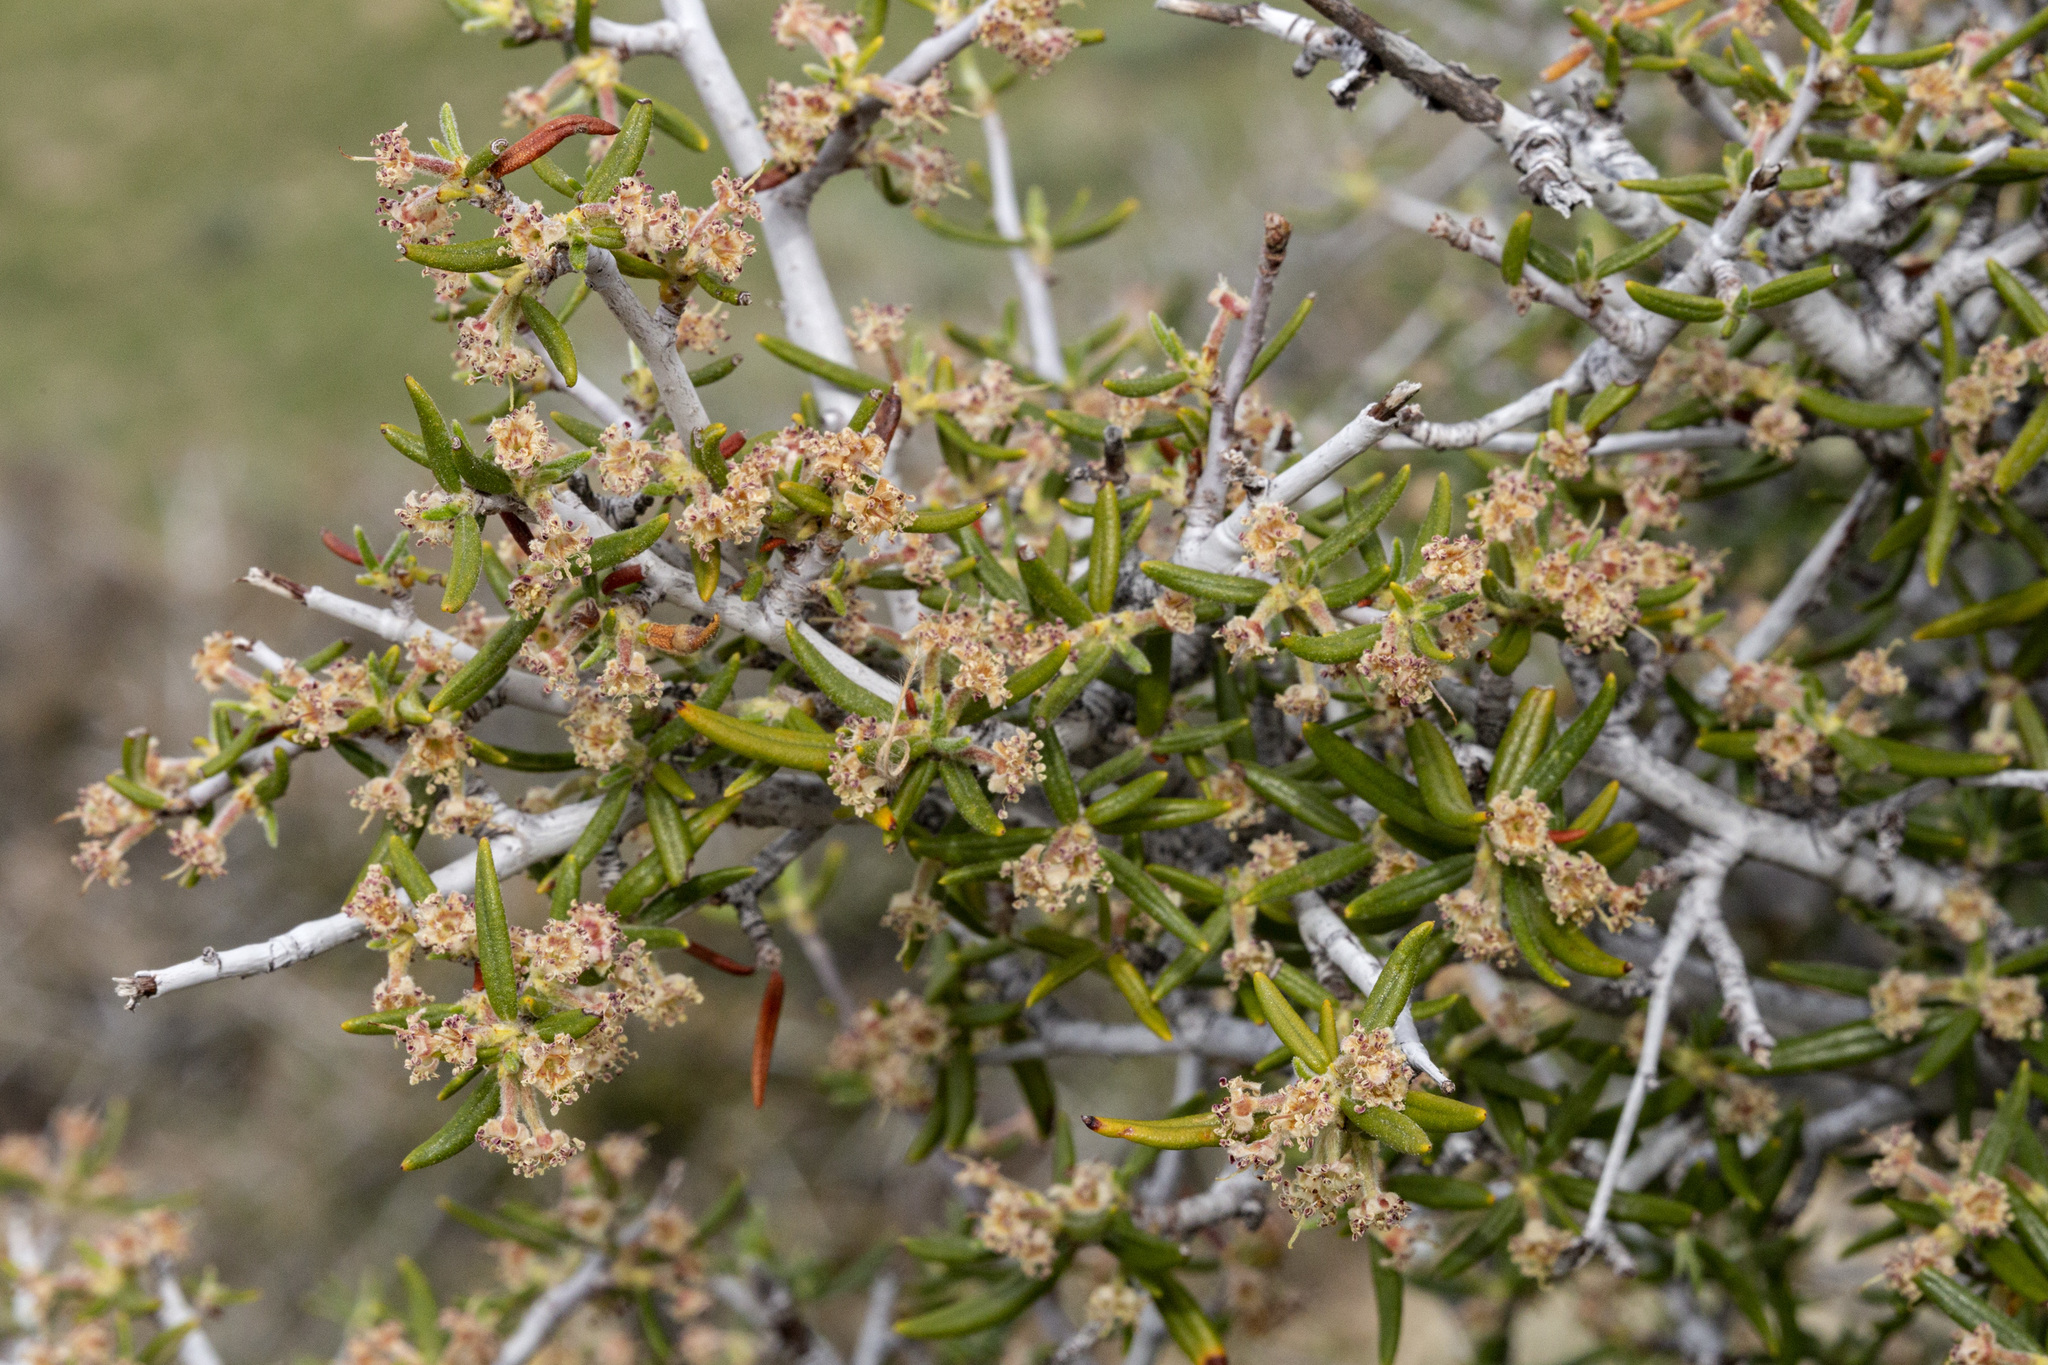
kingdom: Plantae
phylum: Tracheophyta
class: Magnoliopsida
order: Rosales
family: Rosaceae
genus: Cercocarpus
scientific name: Cercocarpus ledifolius
